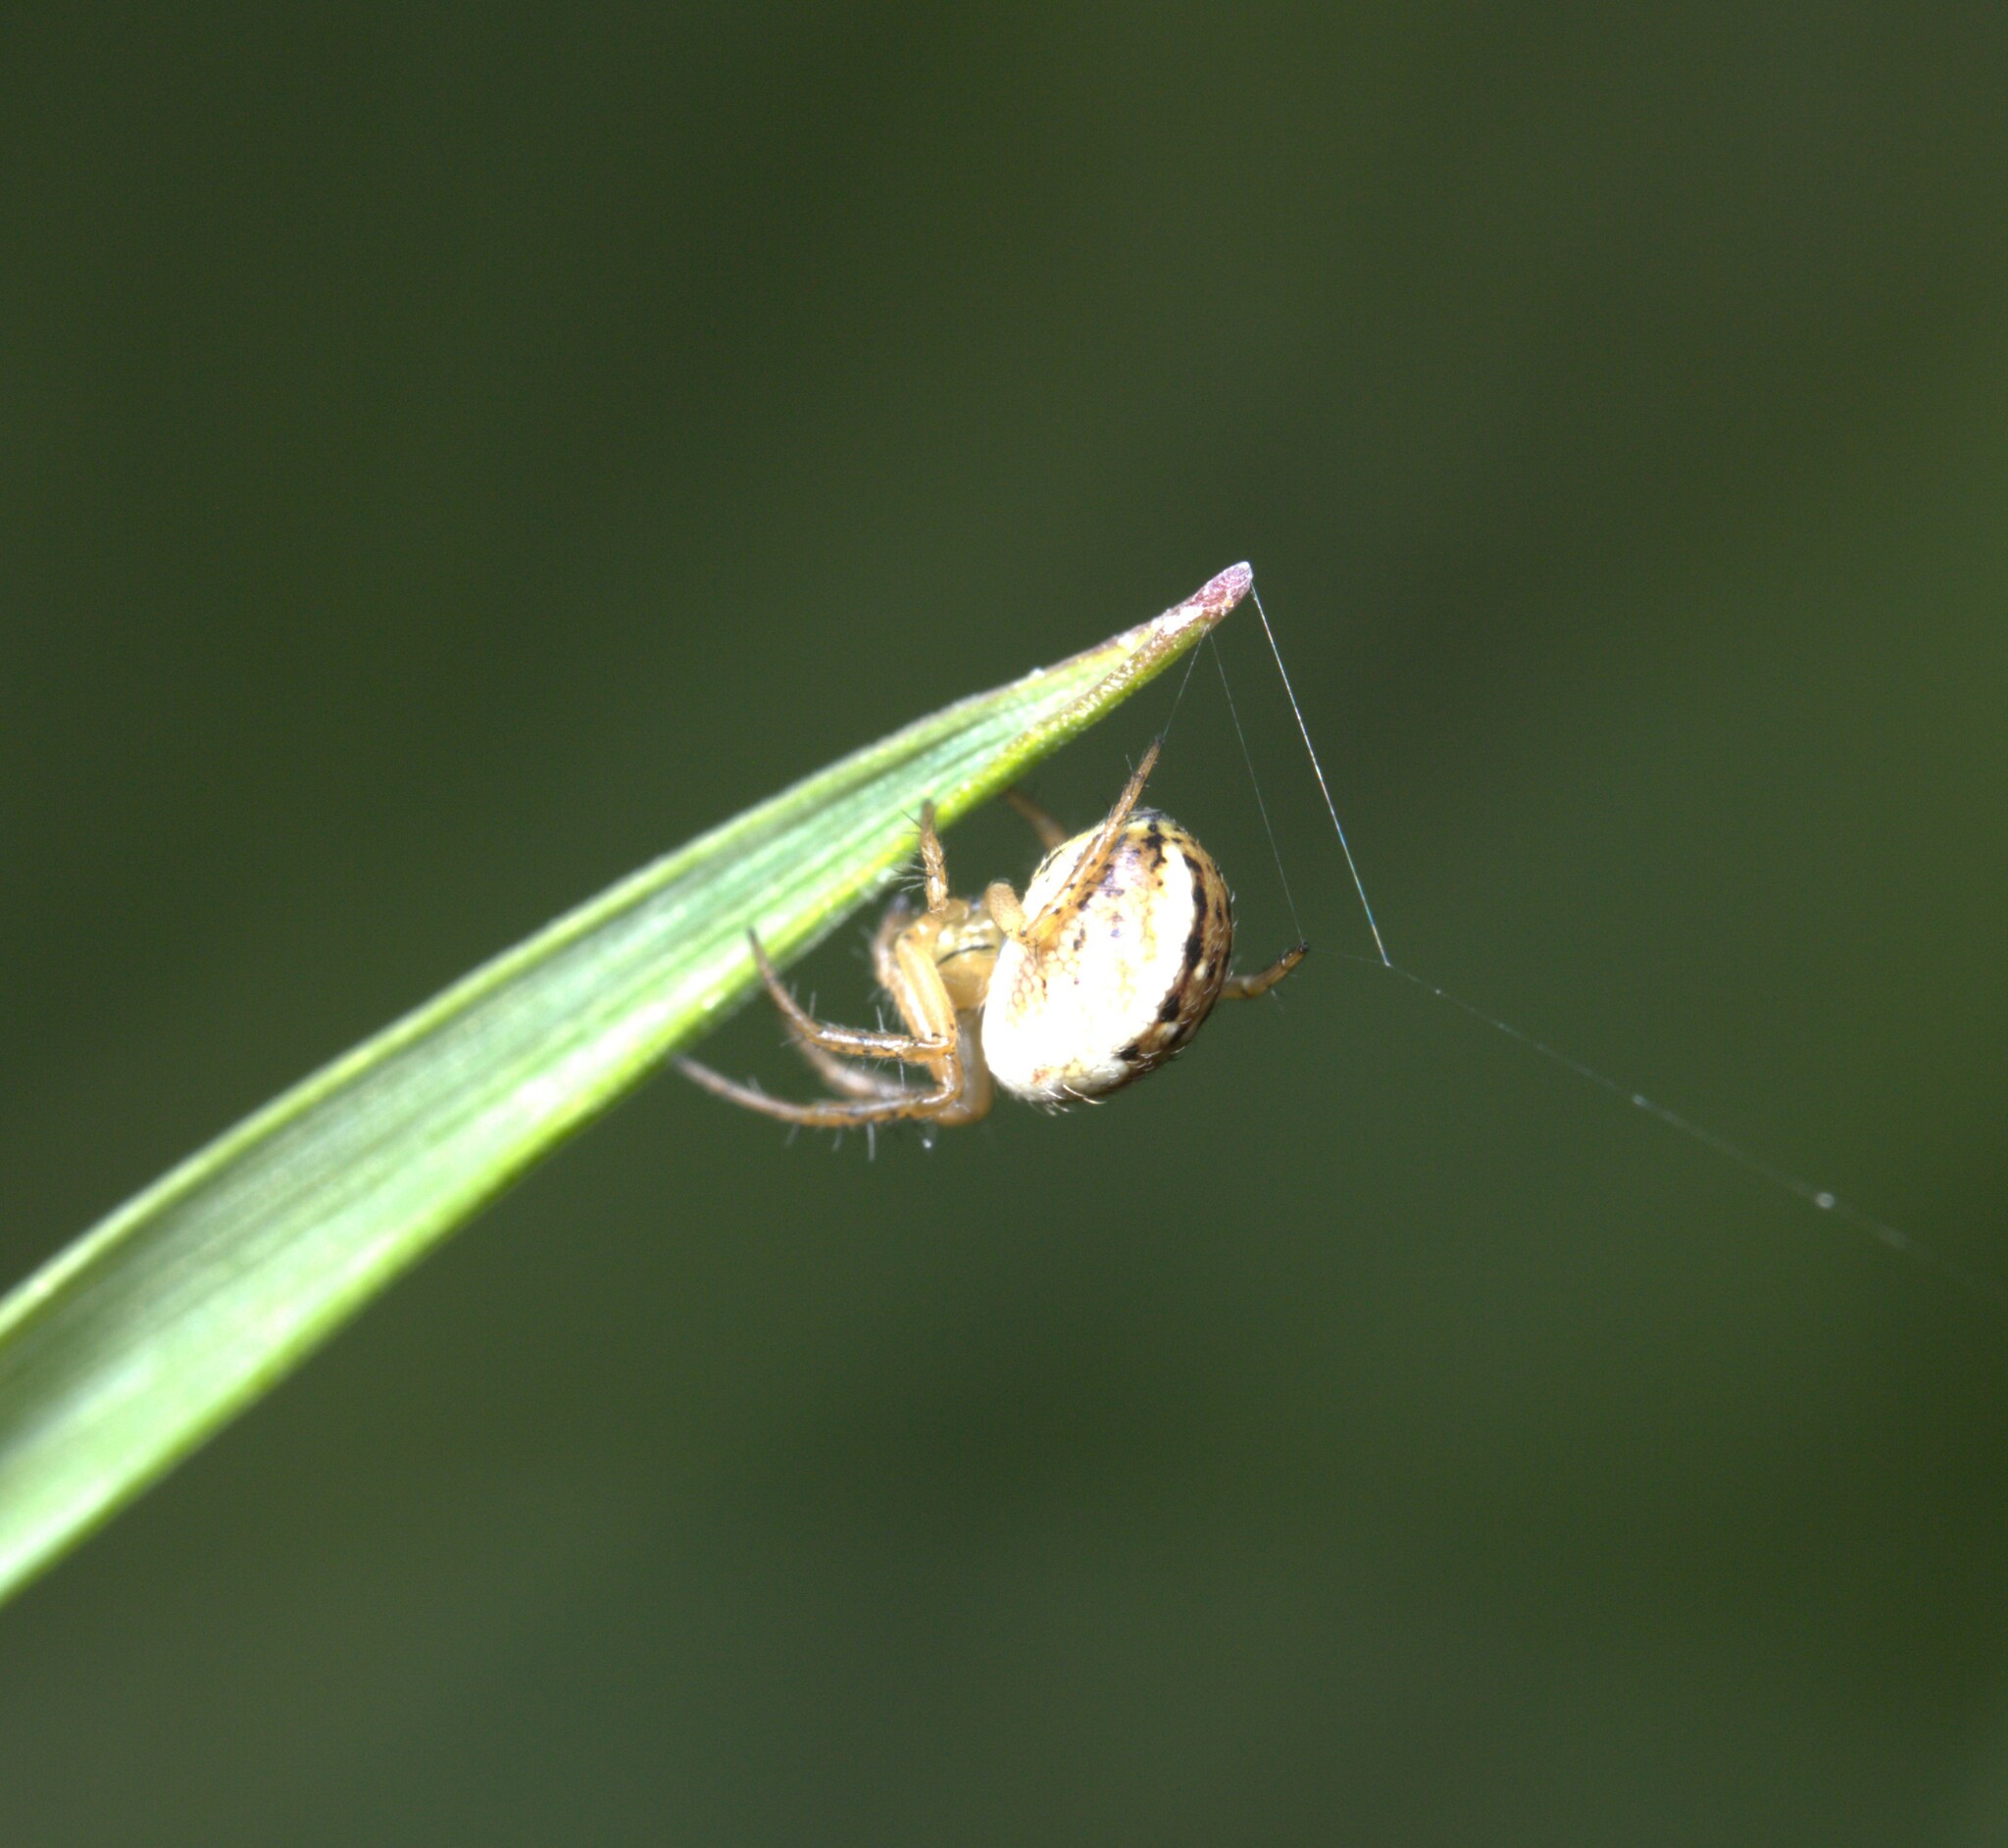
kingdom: Animalia
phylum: Arthropoda
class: Arachnida
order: Araneae
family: Araneidae
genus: Mangora
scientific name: Mangora acalypha
